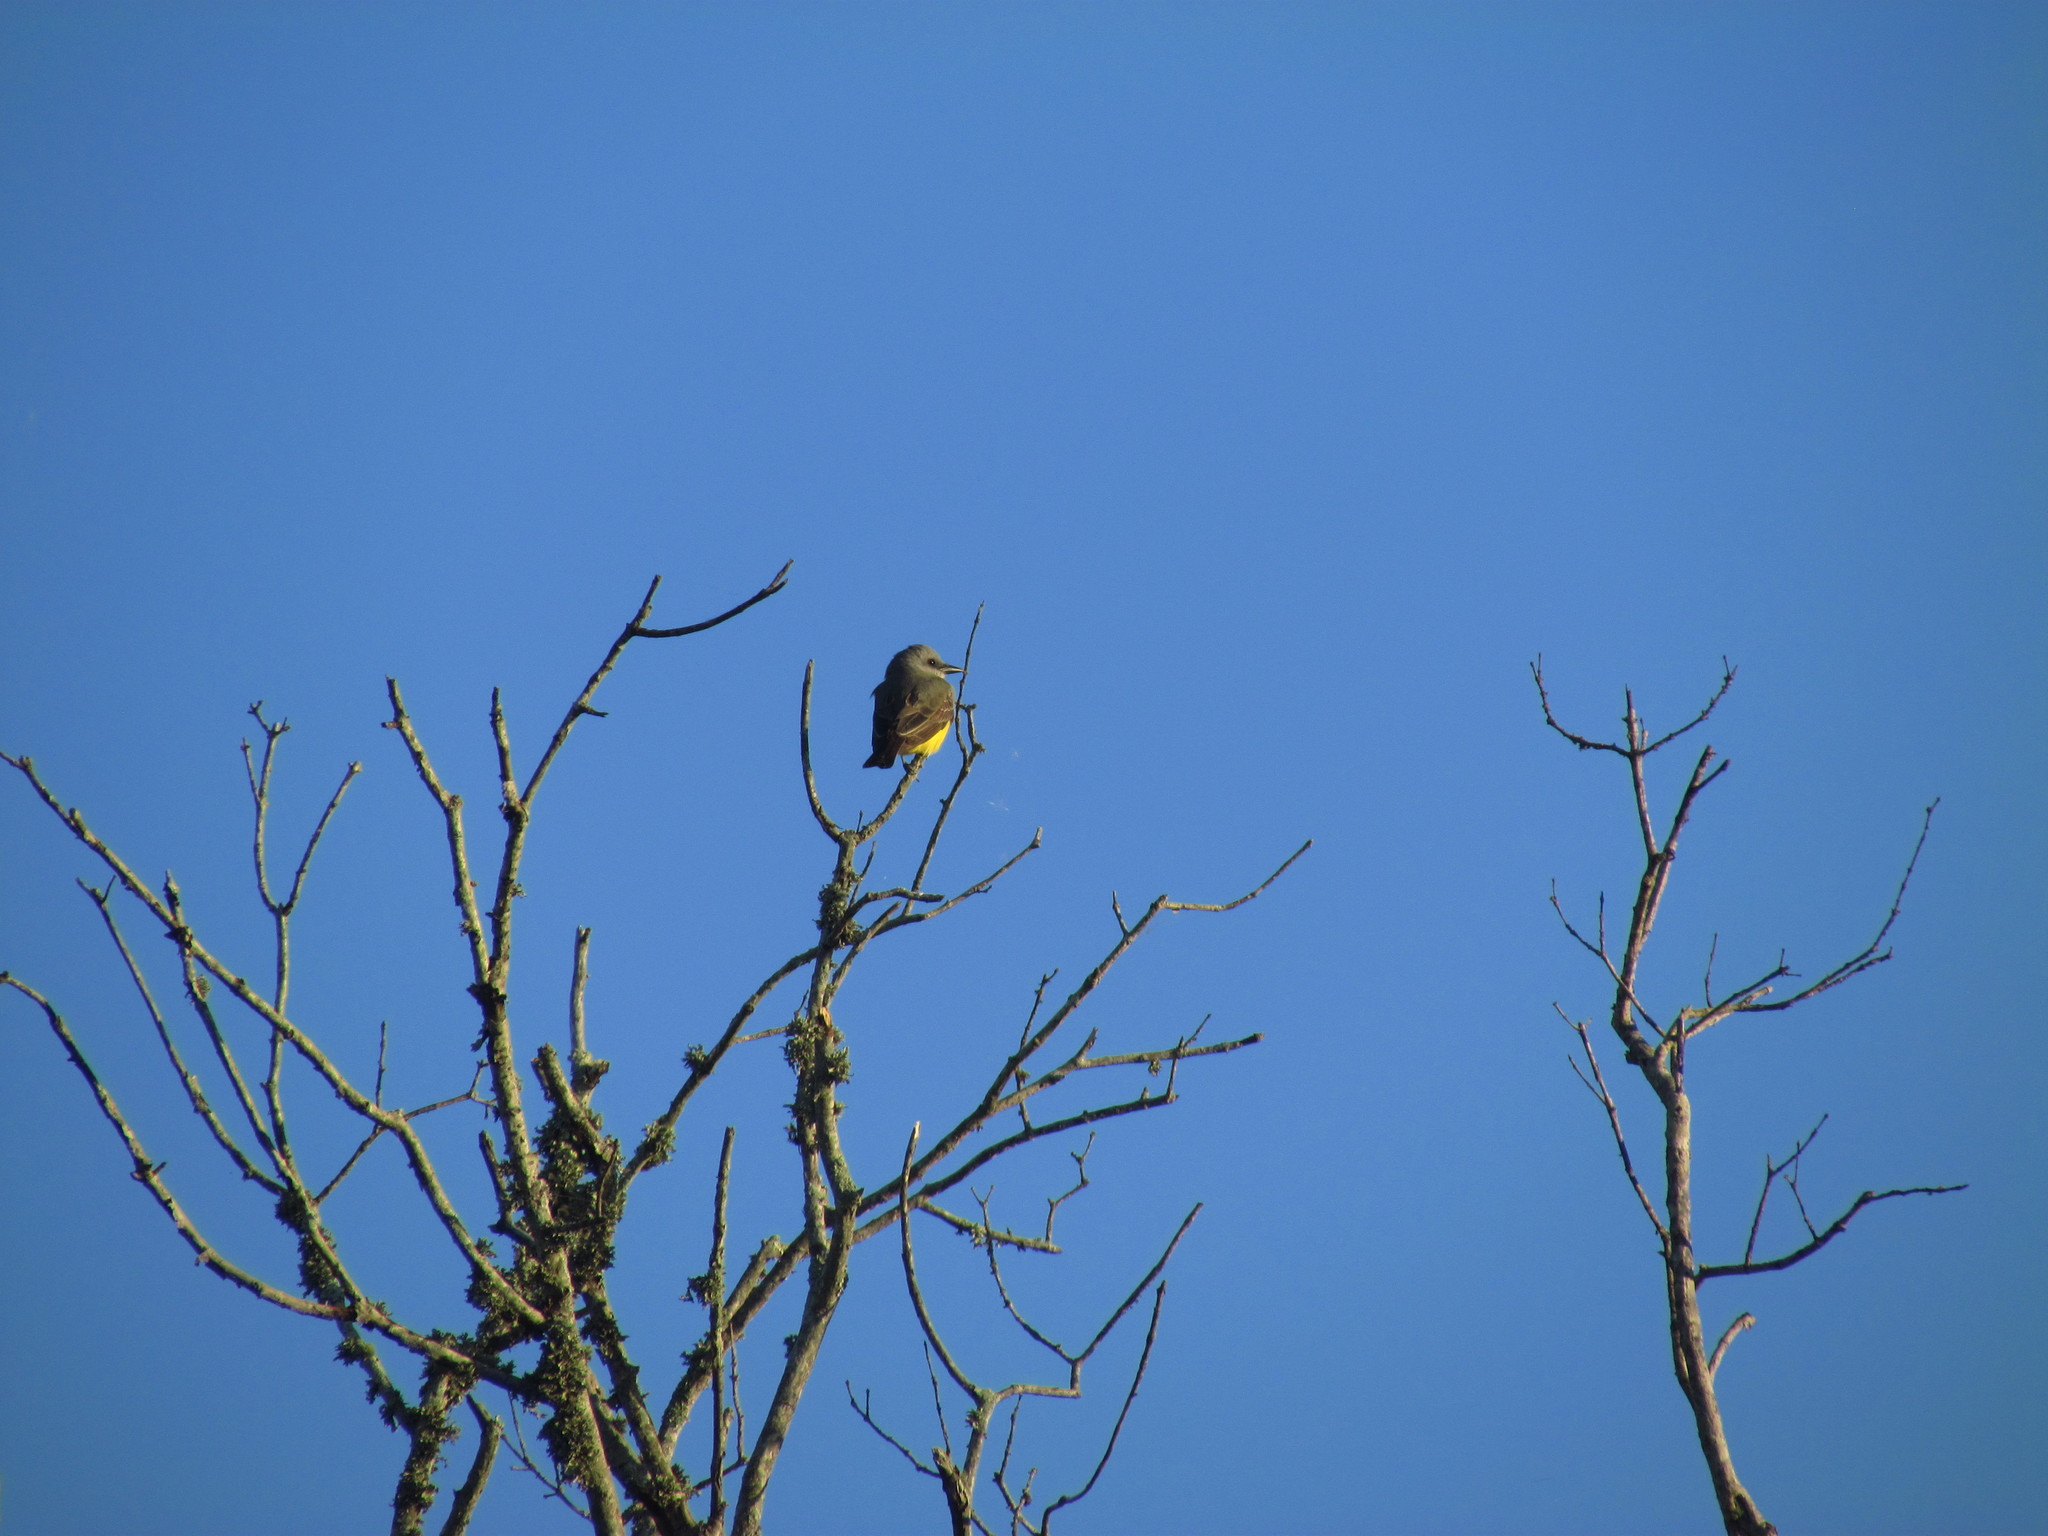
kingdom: Animalia
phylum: Chordata
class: Aves
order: Passeriformes
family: Tyrannidae
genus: Tyrannus
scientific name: Tyrannus melancholicus
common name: Tropical kingbird
